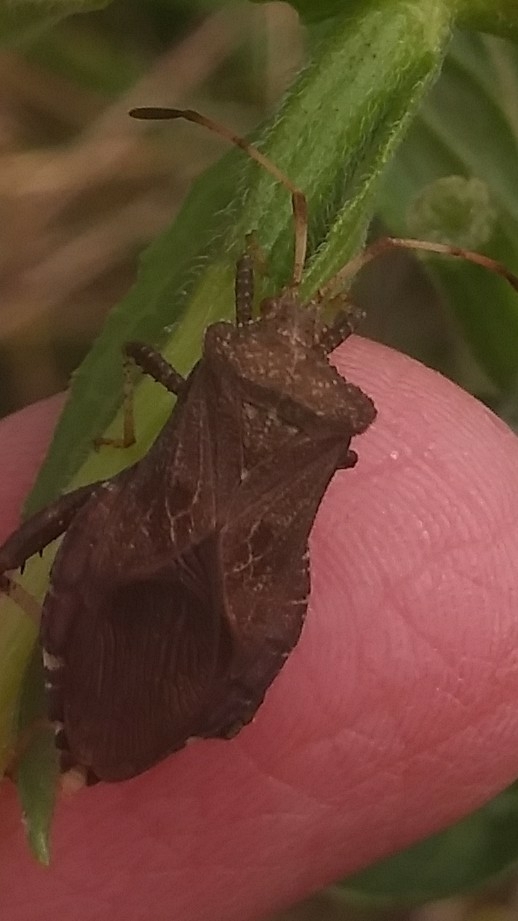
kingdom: Animalia
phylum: Arthropoda
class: Insecta
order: Hemiptera
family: Coreidae
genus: Euthochtha
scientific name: Euthochtha galeator
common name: Helmeted squash bug
